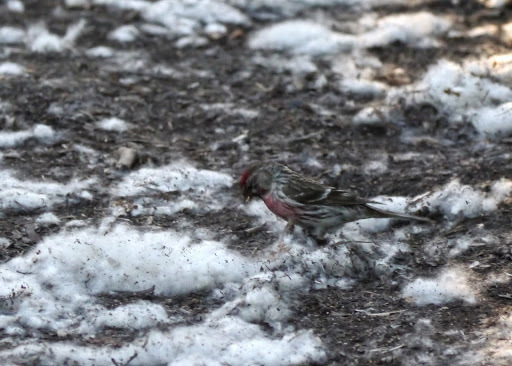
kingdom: Animalia
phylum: Chordata
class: Aves
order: Passeriformes
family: Fringillidae
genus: Acanthis
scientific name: Acanthis flammea
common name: Common redpoll
